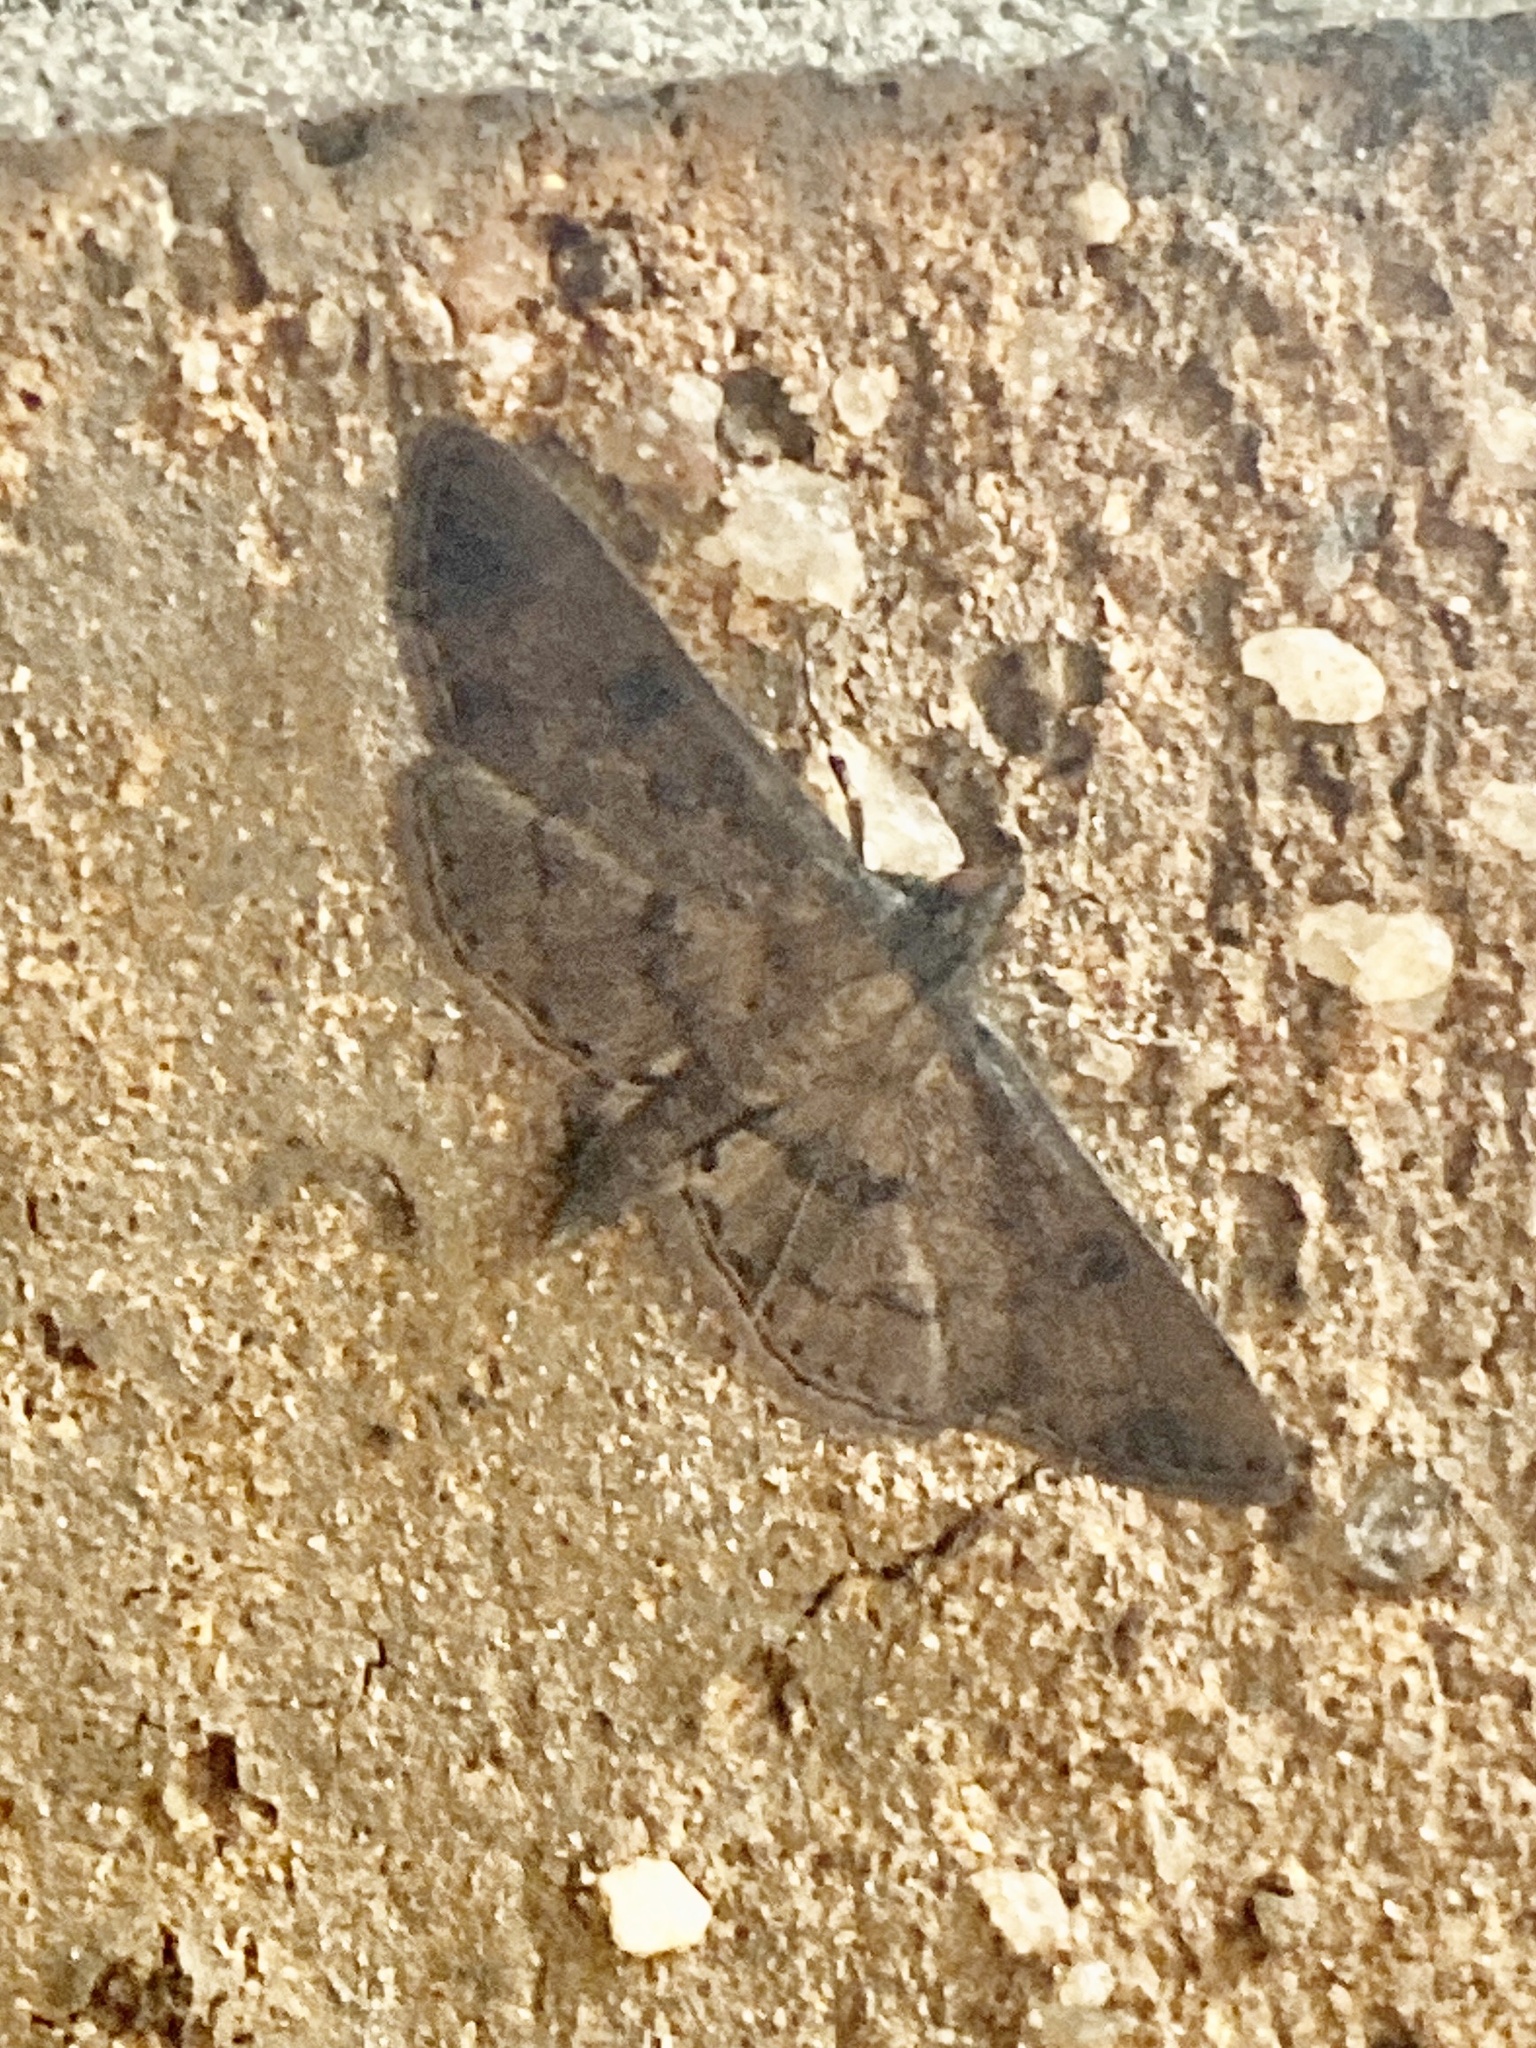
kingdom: Animalia
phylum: Arthropoda
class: Insecta
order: Lepidoptera
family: Crambidae
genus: Nacoleia
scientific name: Nacoleia charesalis
